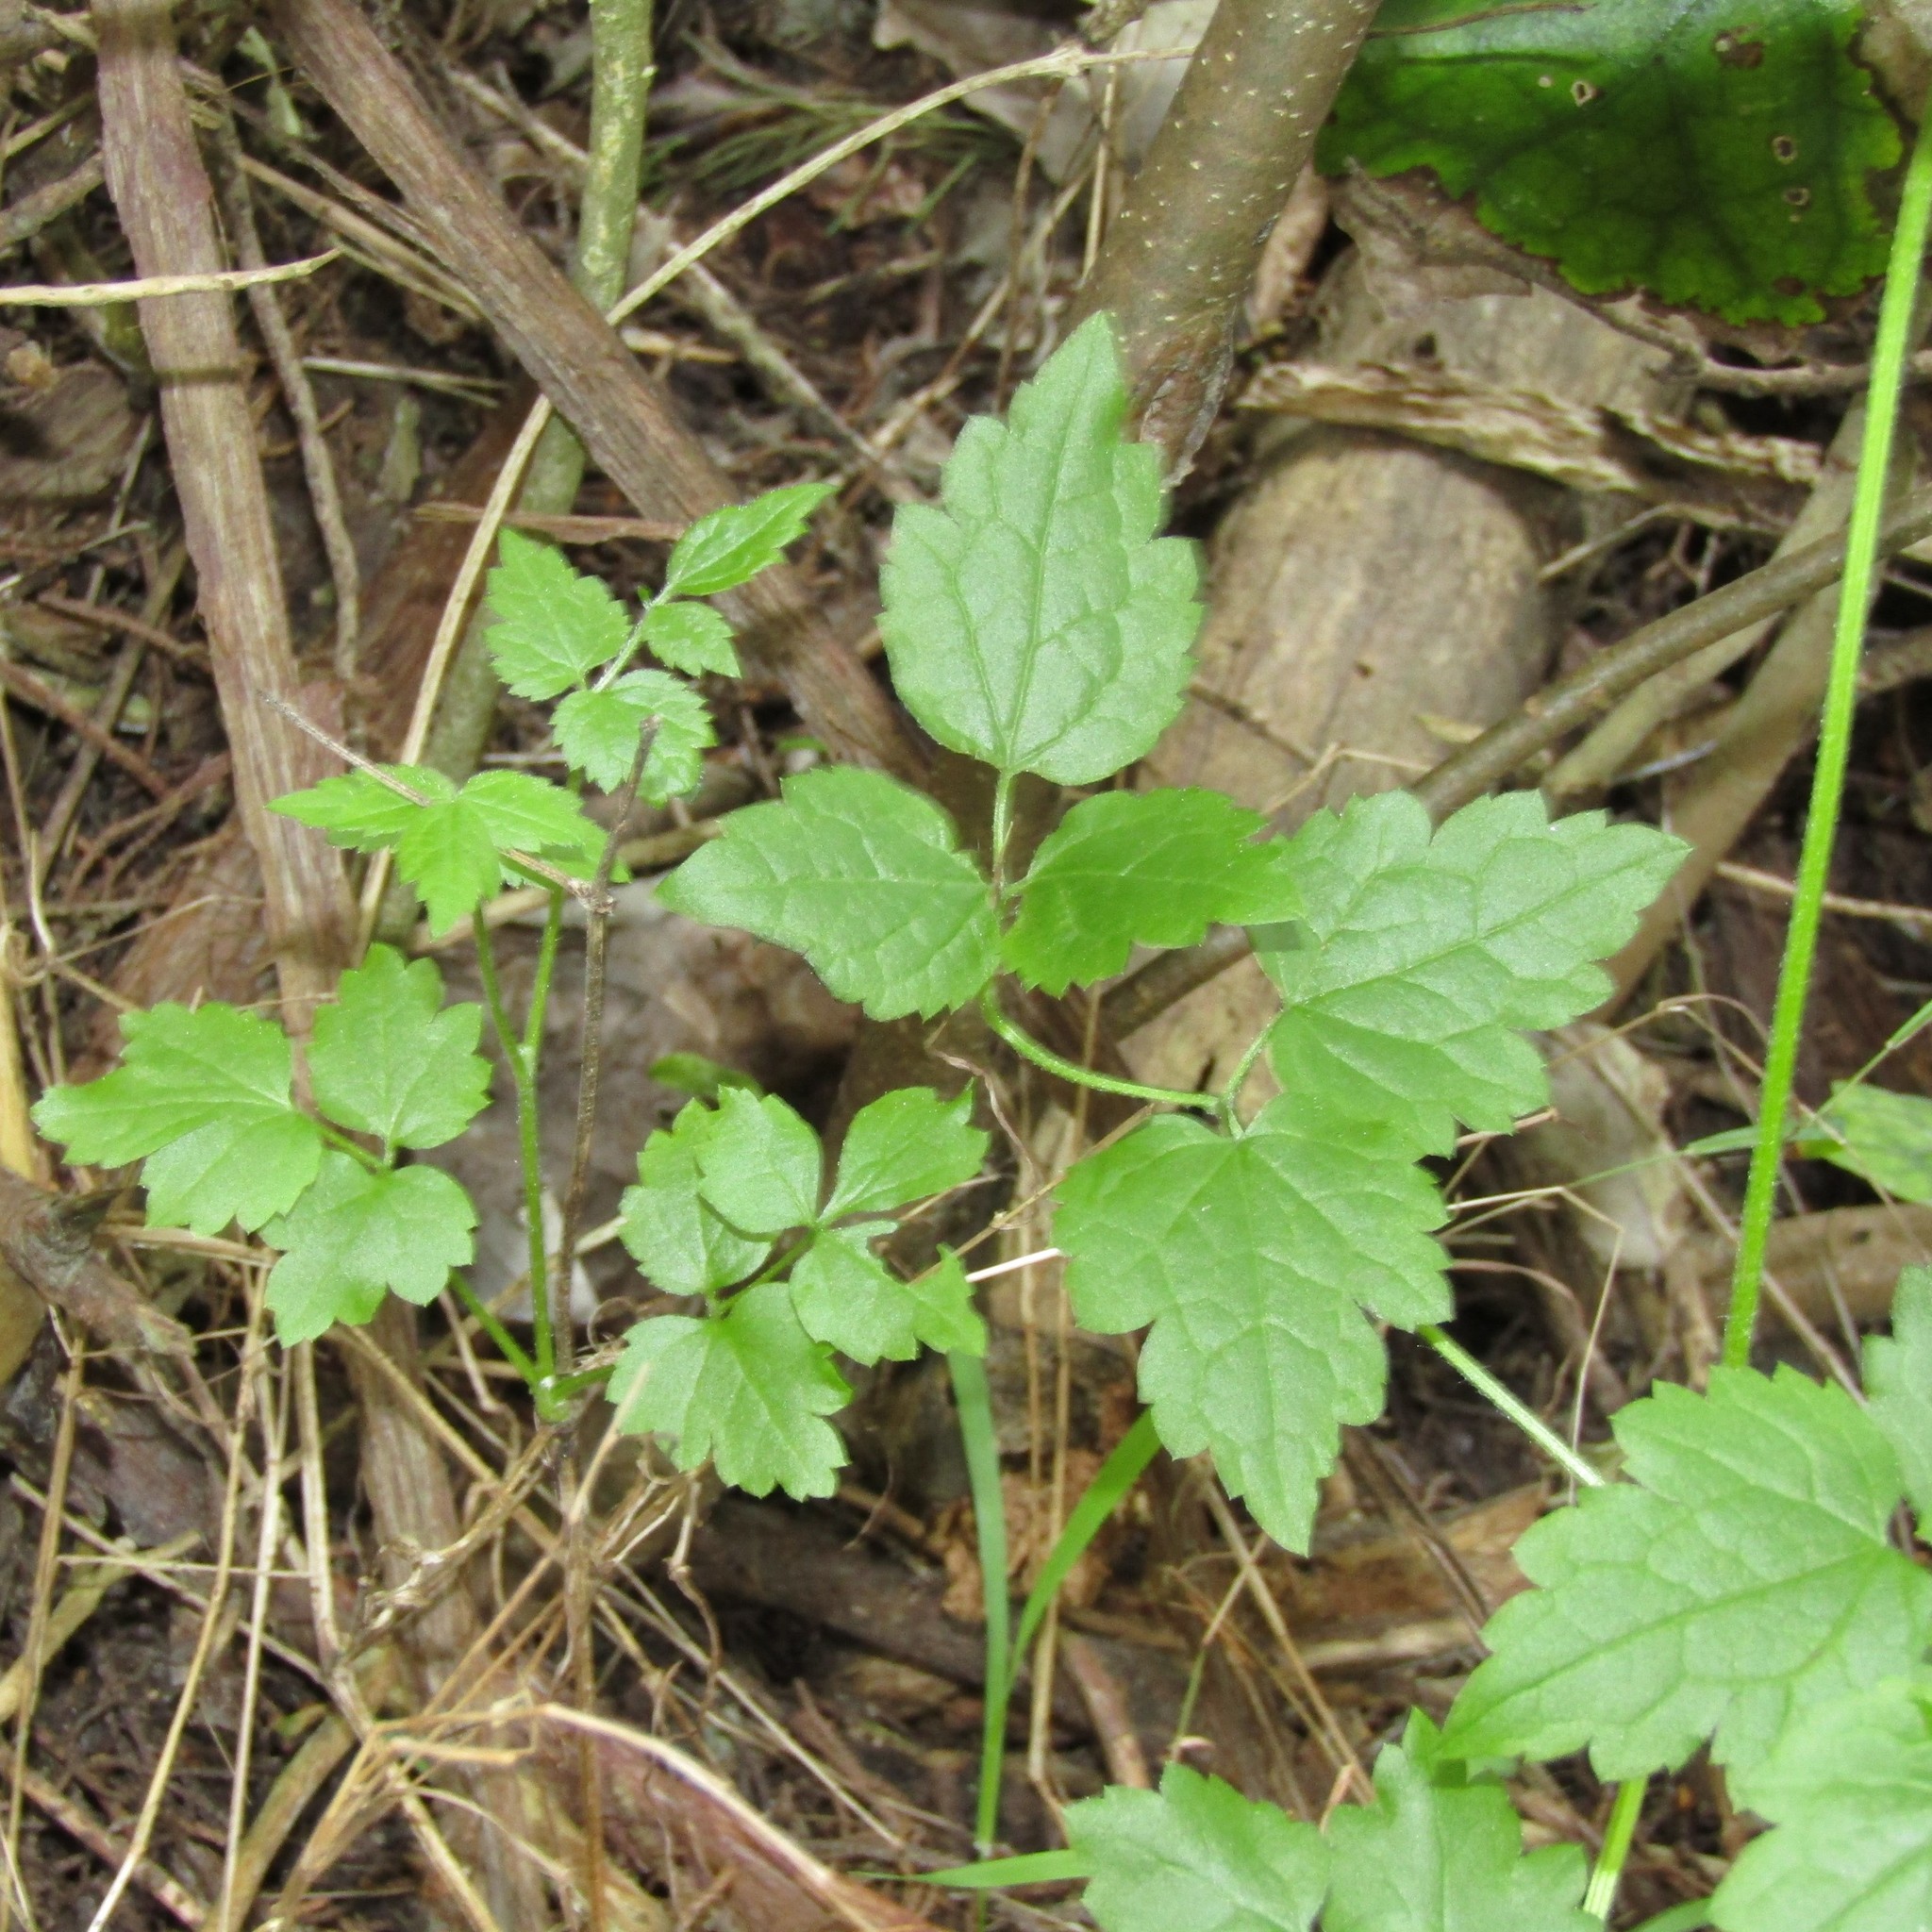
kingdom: Plantae
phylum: Tracheophyta
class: Magnoliopsida
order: Ranunculales
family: Ranunculaceae
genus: Clematis
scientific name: Clematis vitalba
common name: Evergreen clematis
